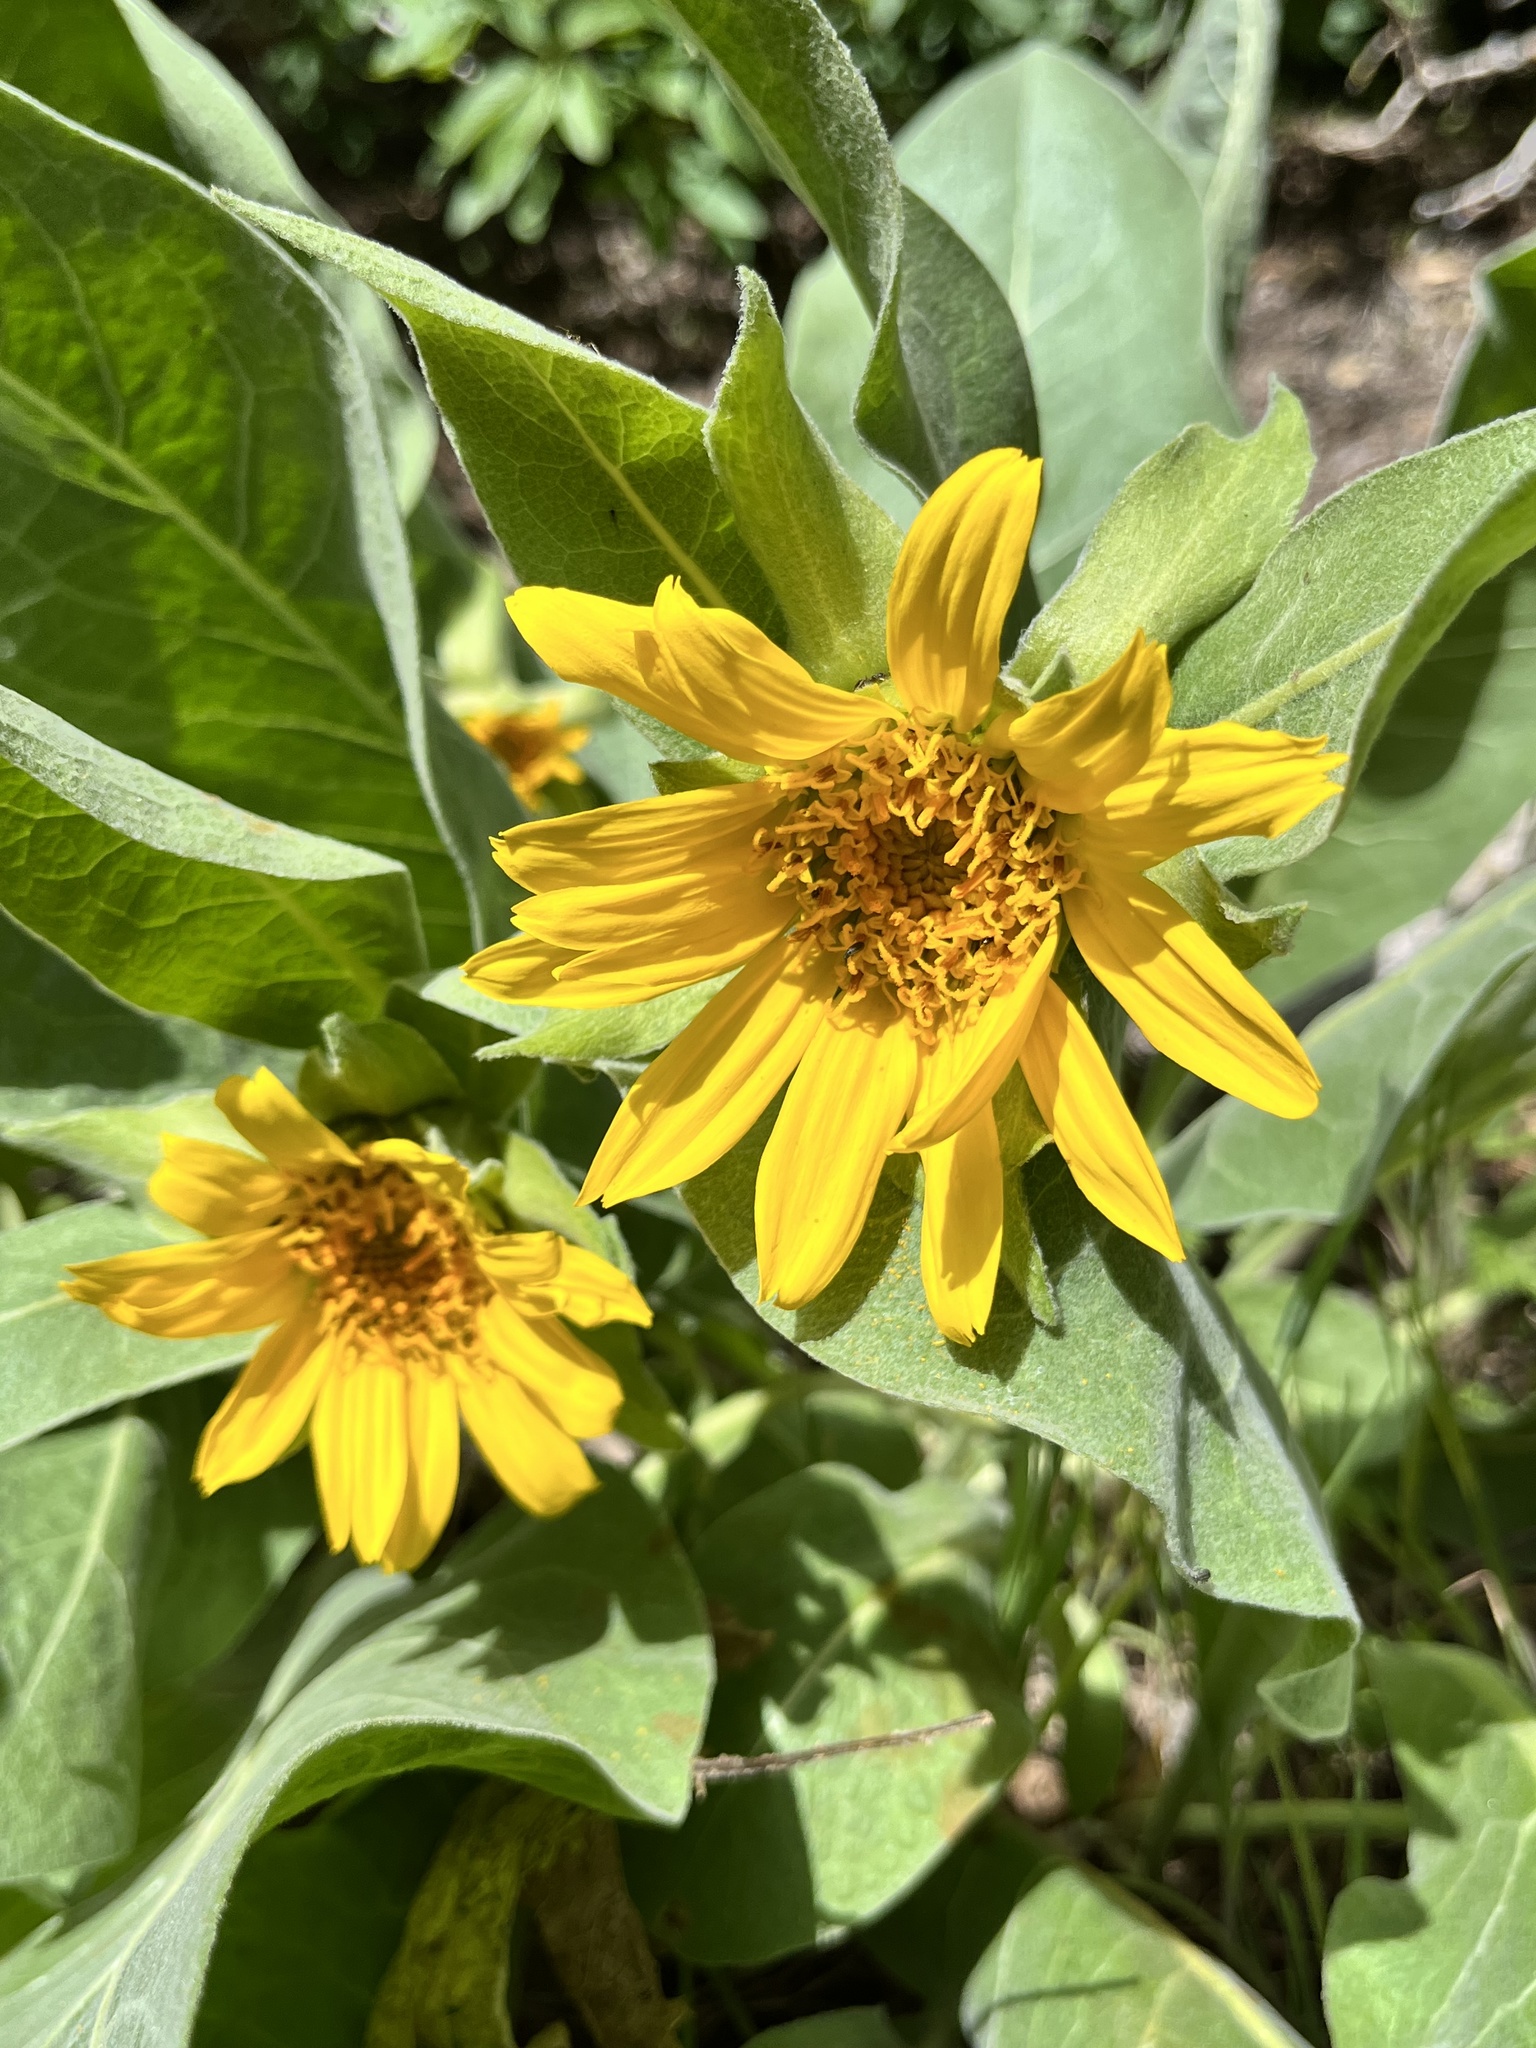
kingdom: Plantae
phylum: Tracheophyta
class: Magnoliopsida
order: Asterales
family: Asteraceae
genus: Wyethia
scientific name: Wyethia helenioides
